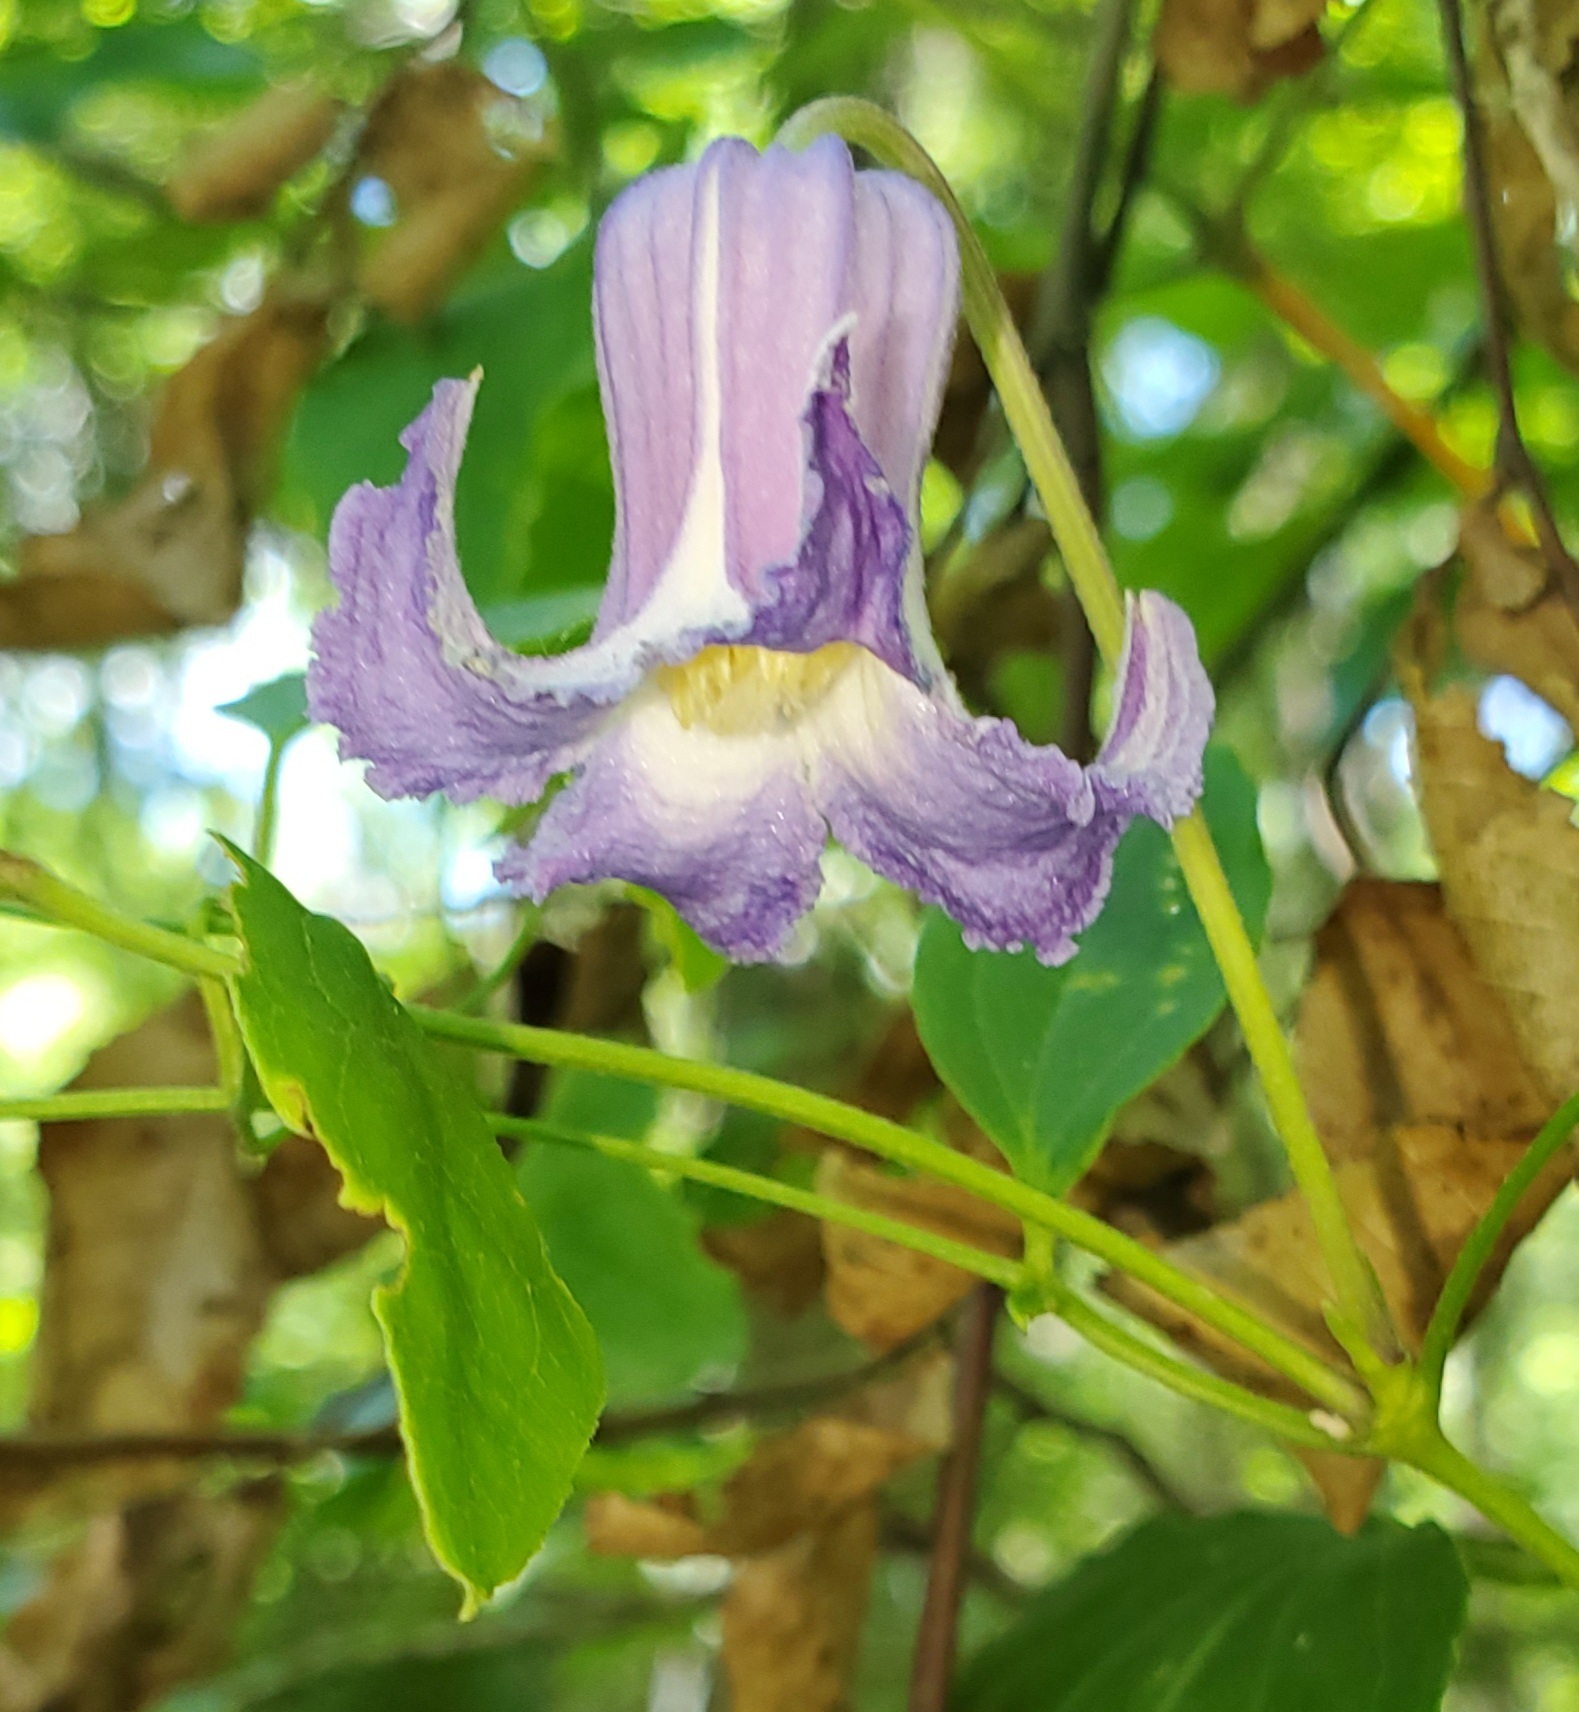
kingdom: Plantae
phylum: Tracheophyta
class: Magnoliopsida
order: Ranunculales
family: Ranunculaceae
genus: Clematis
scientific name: Clematis crispa
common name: Curly clematis
